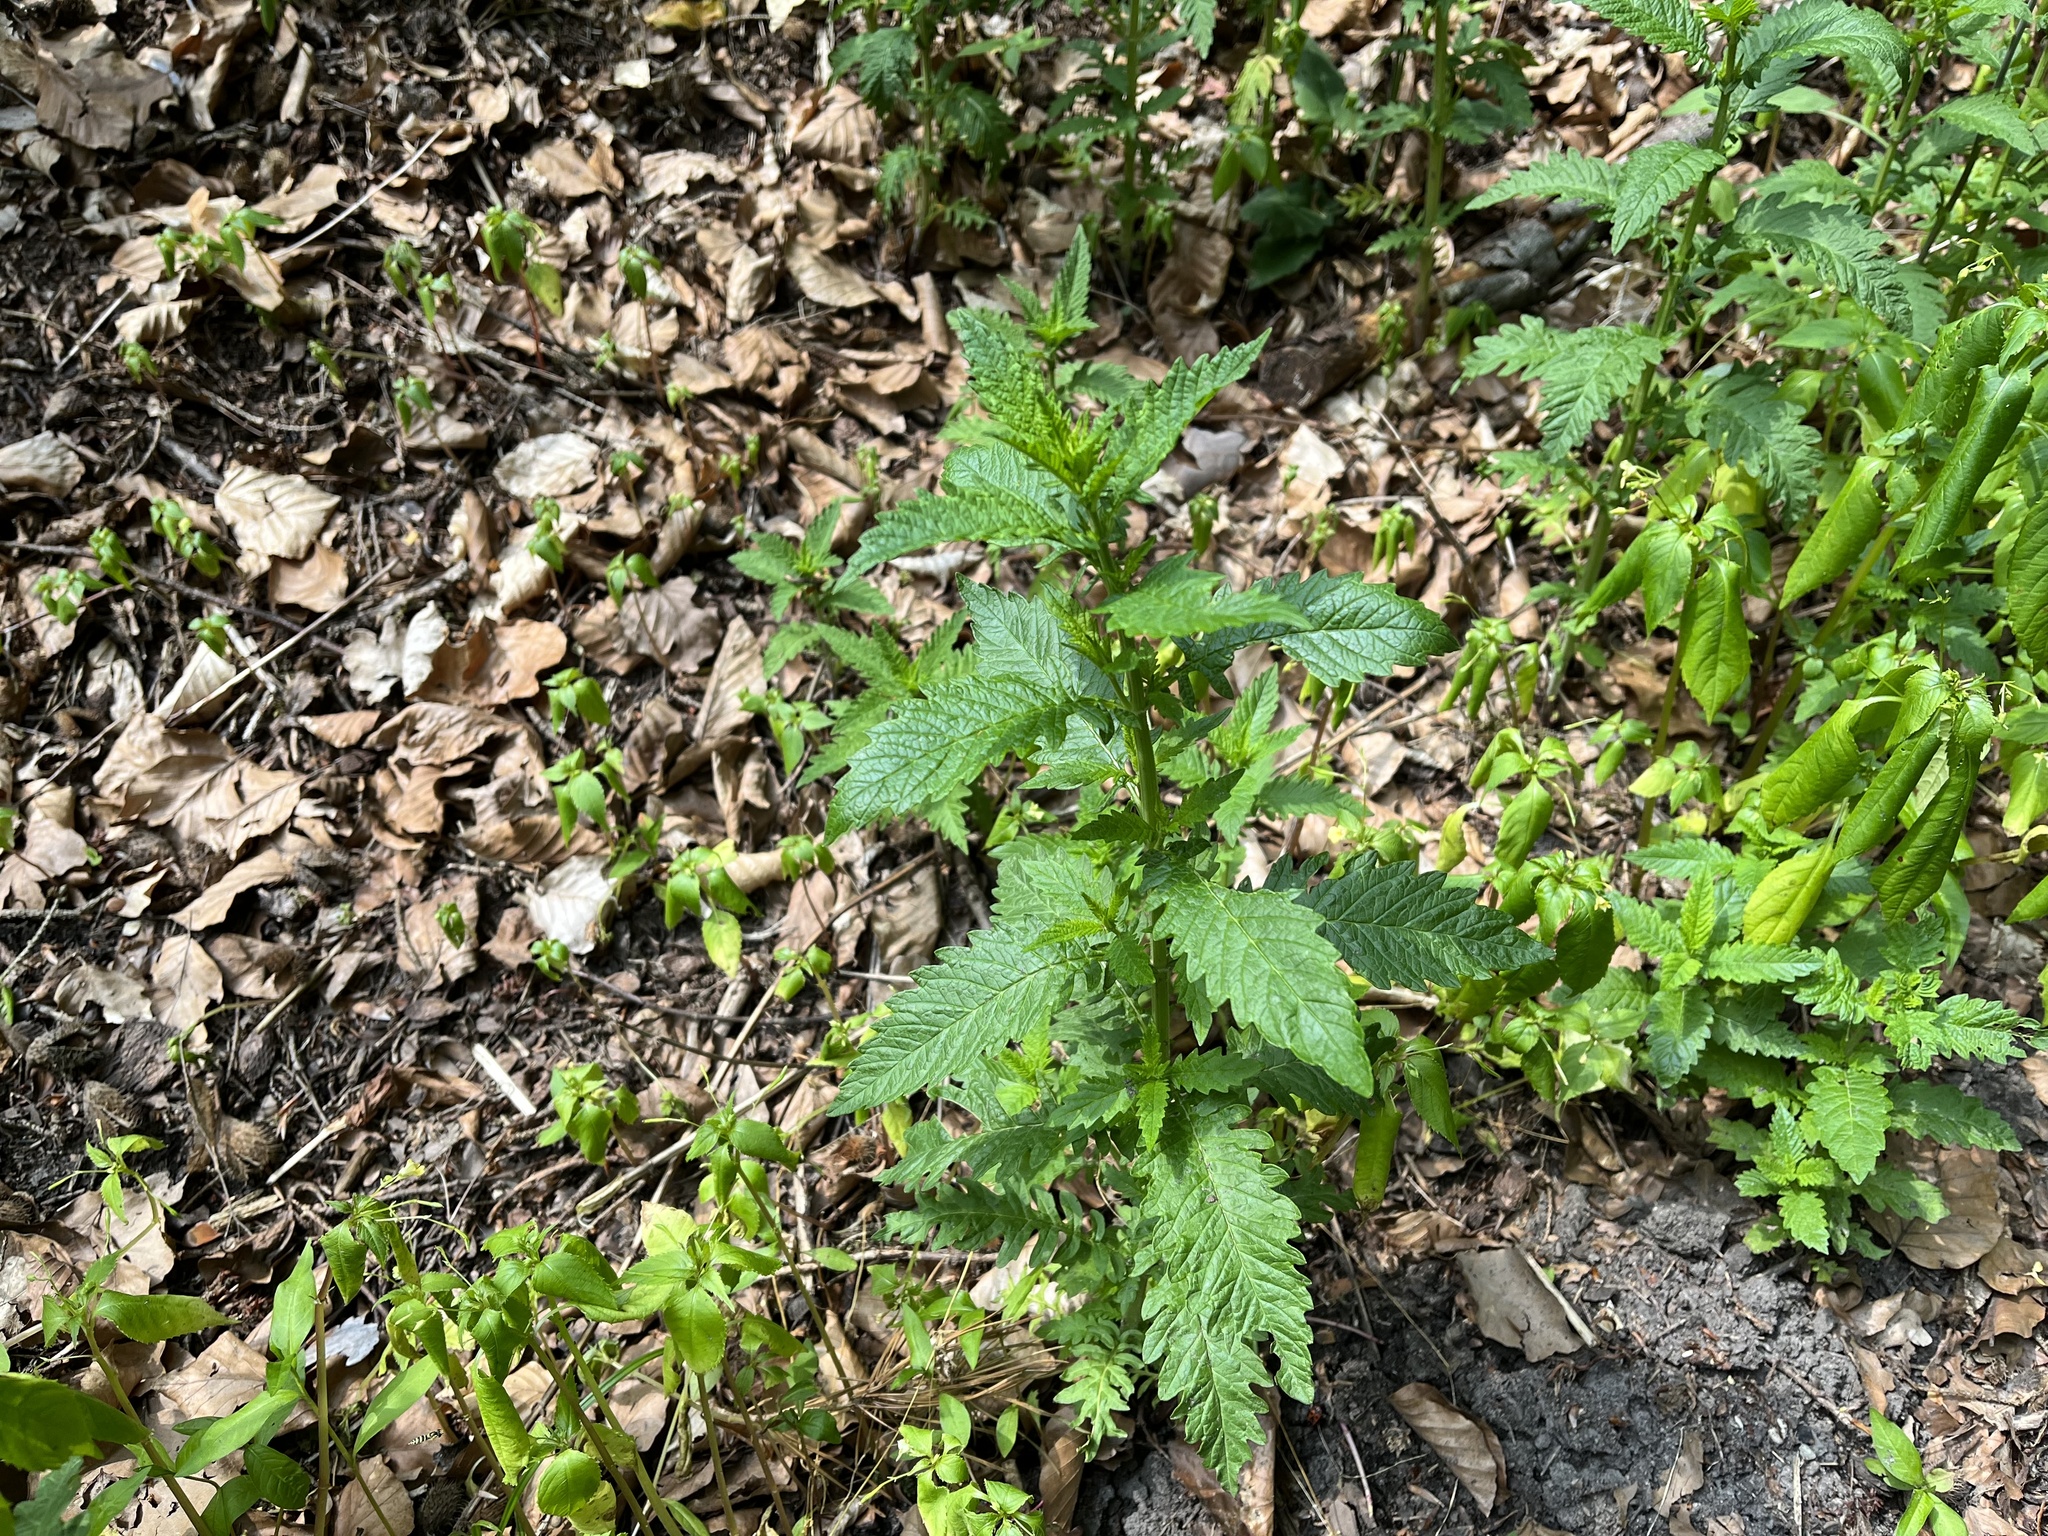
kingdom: Plantae
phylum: Tracheophyta
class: Magnoliopsida
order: Lamiales
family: Lamiaceae
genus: Lycopus
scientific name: Lycopus europaeus
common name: European bugleweed
